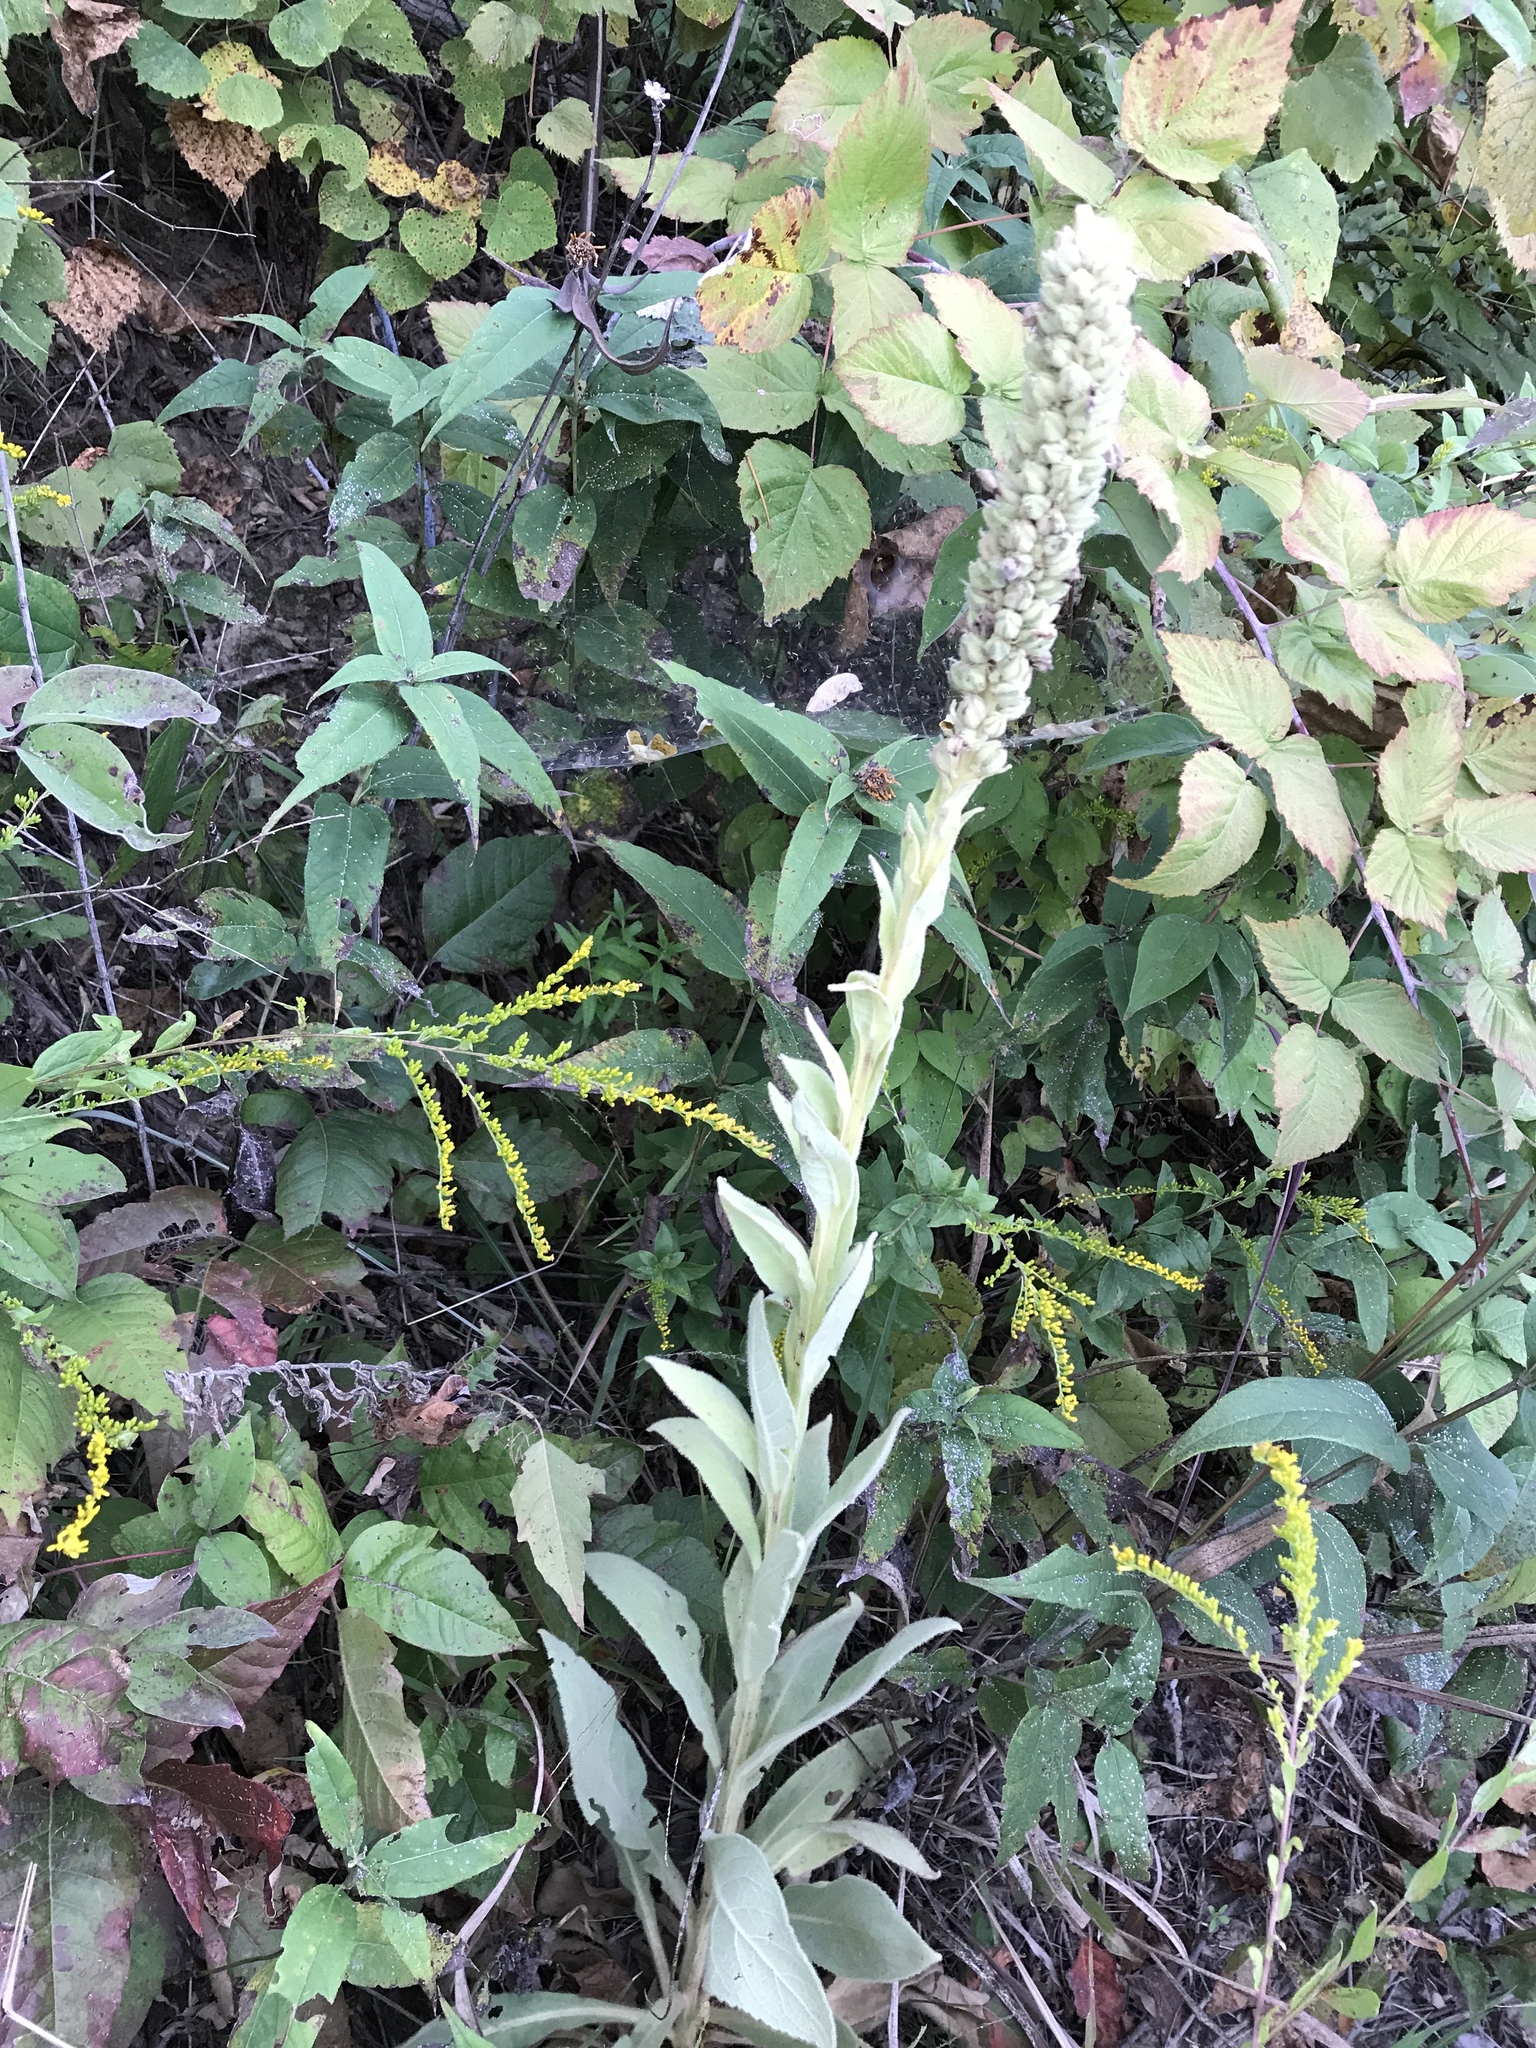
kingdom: Plantae
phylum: Tracheophyta
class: Magnoliopsida
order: Lamiales
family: Scrophulariaceae
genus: Verbascum
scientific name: Verbascum thapsus
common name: Common mullein
